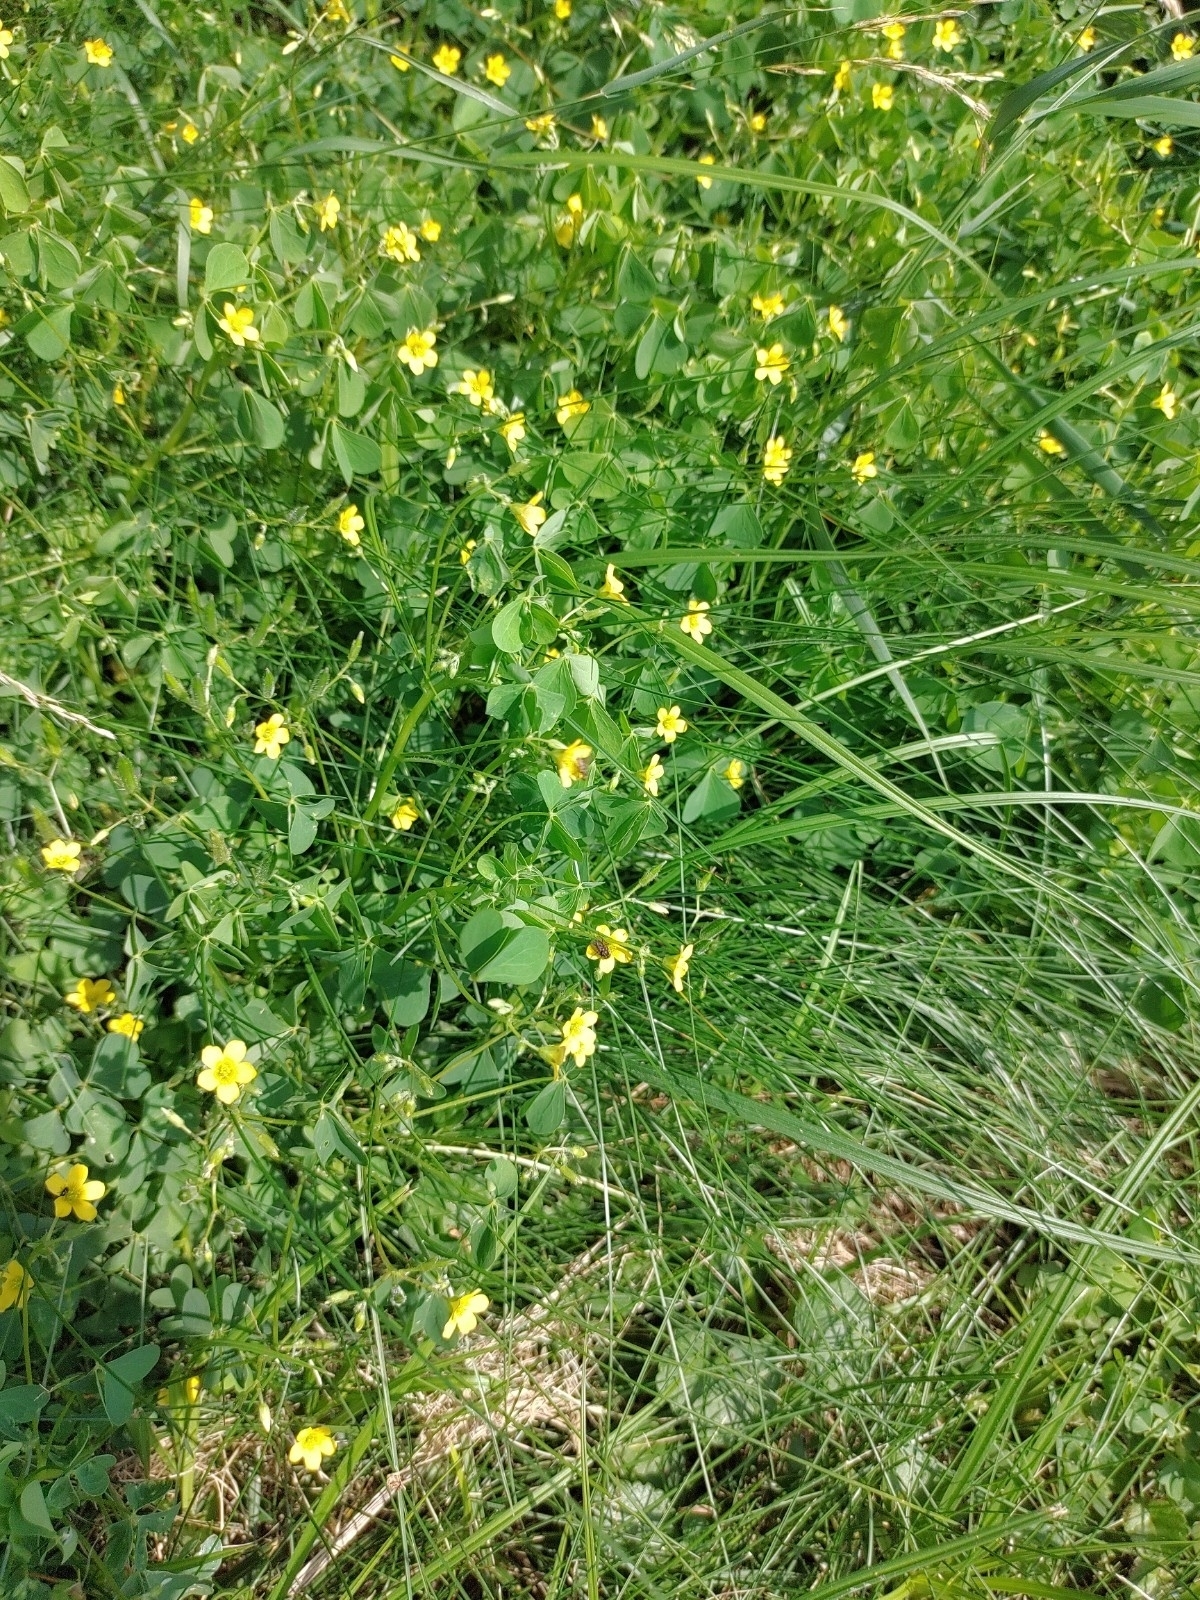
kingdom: Plantae
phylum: Tracheophyta
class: Magnoliopsida
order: Oxalidales
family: Oxalidaceae
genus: Oxalis
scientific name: Oxalis stricta
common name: Upright yellow-sorrel
